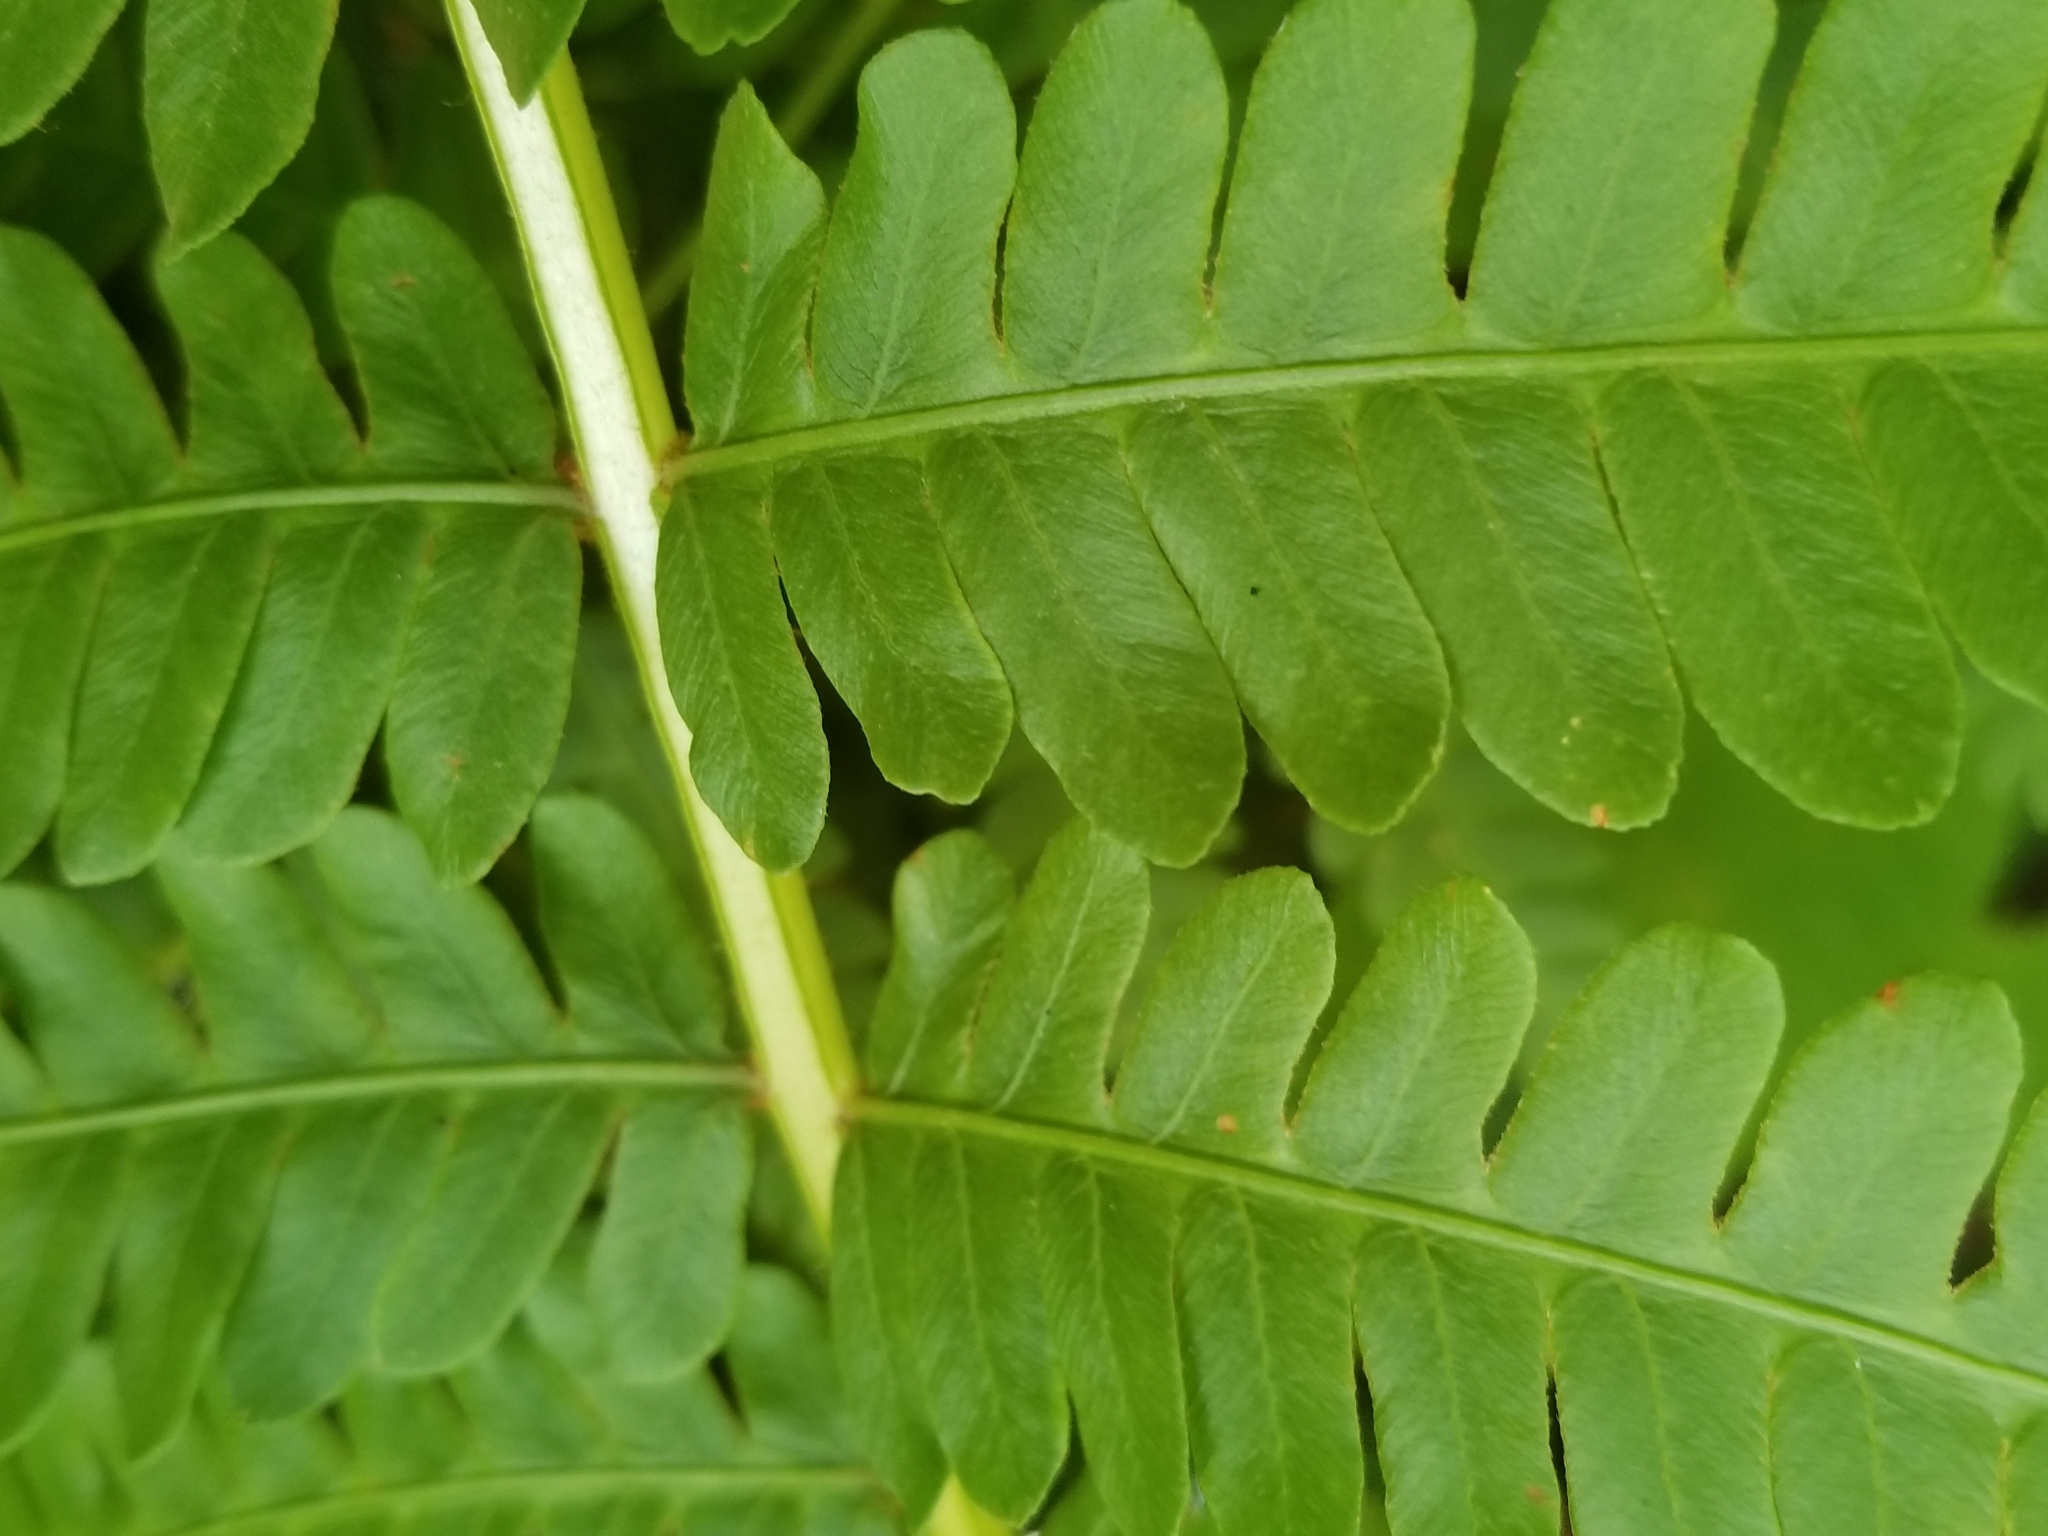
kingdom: Plantae
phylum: Tracheophyta
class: Polypodiopsida
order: Osmundales
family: Osmundaceae
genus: Osmundastrum
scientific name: Osmundastrum cinnamomeum
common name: Cinnamon fern
